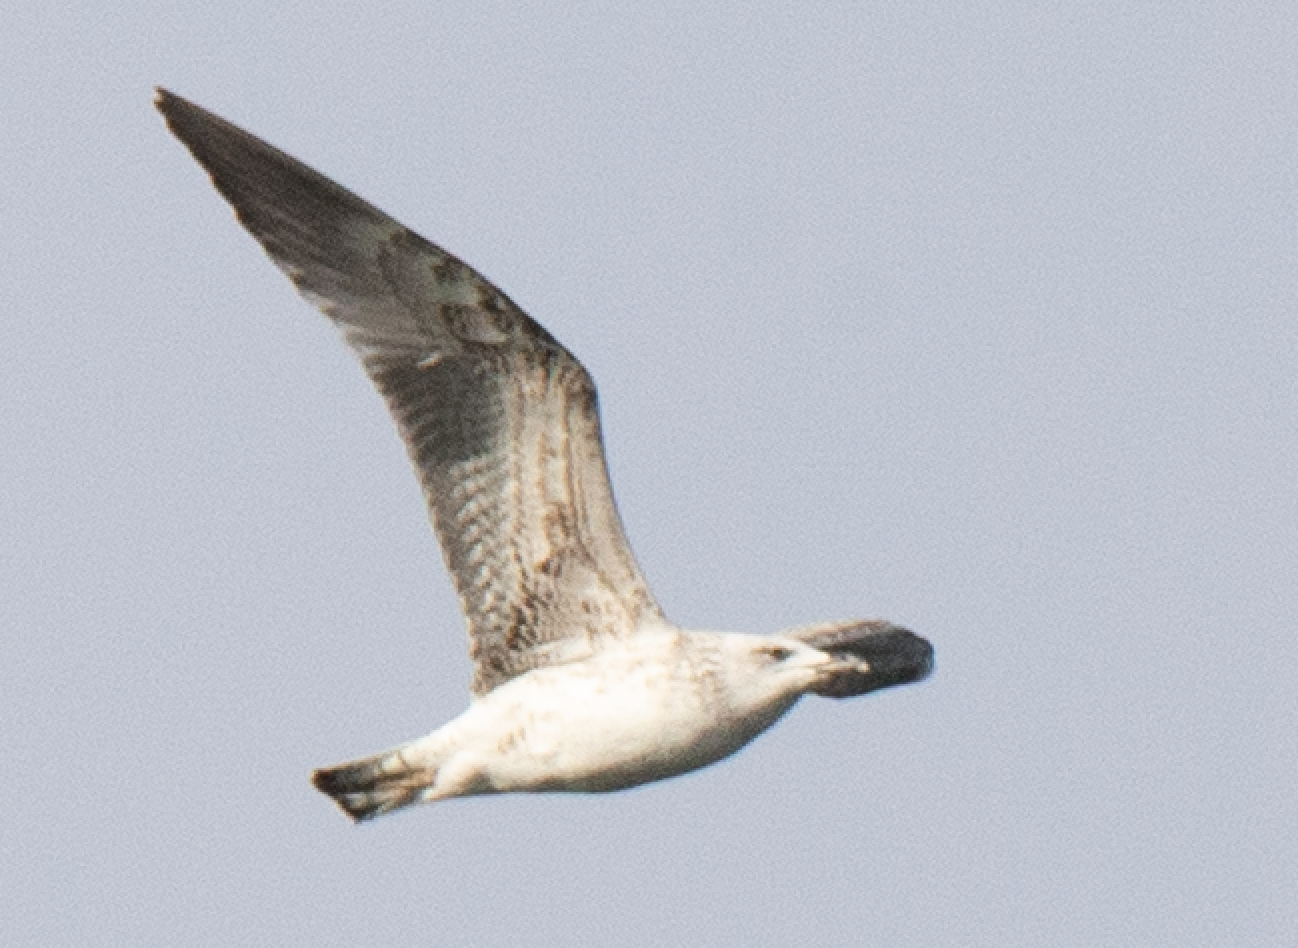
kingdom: Animalia
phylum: Chordata
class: Aves
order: Charadriiformes
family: Laridae
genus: Larus
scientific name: Larus michahellis
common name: Yellow-legged gull
